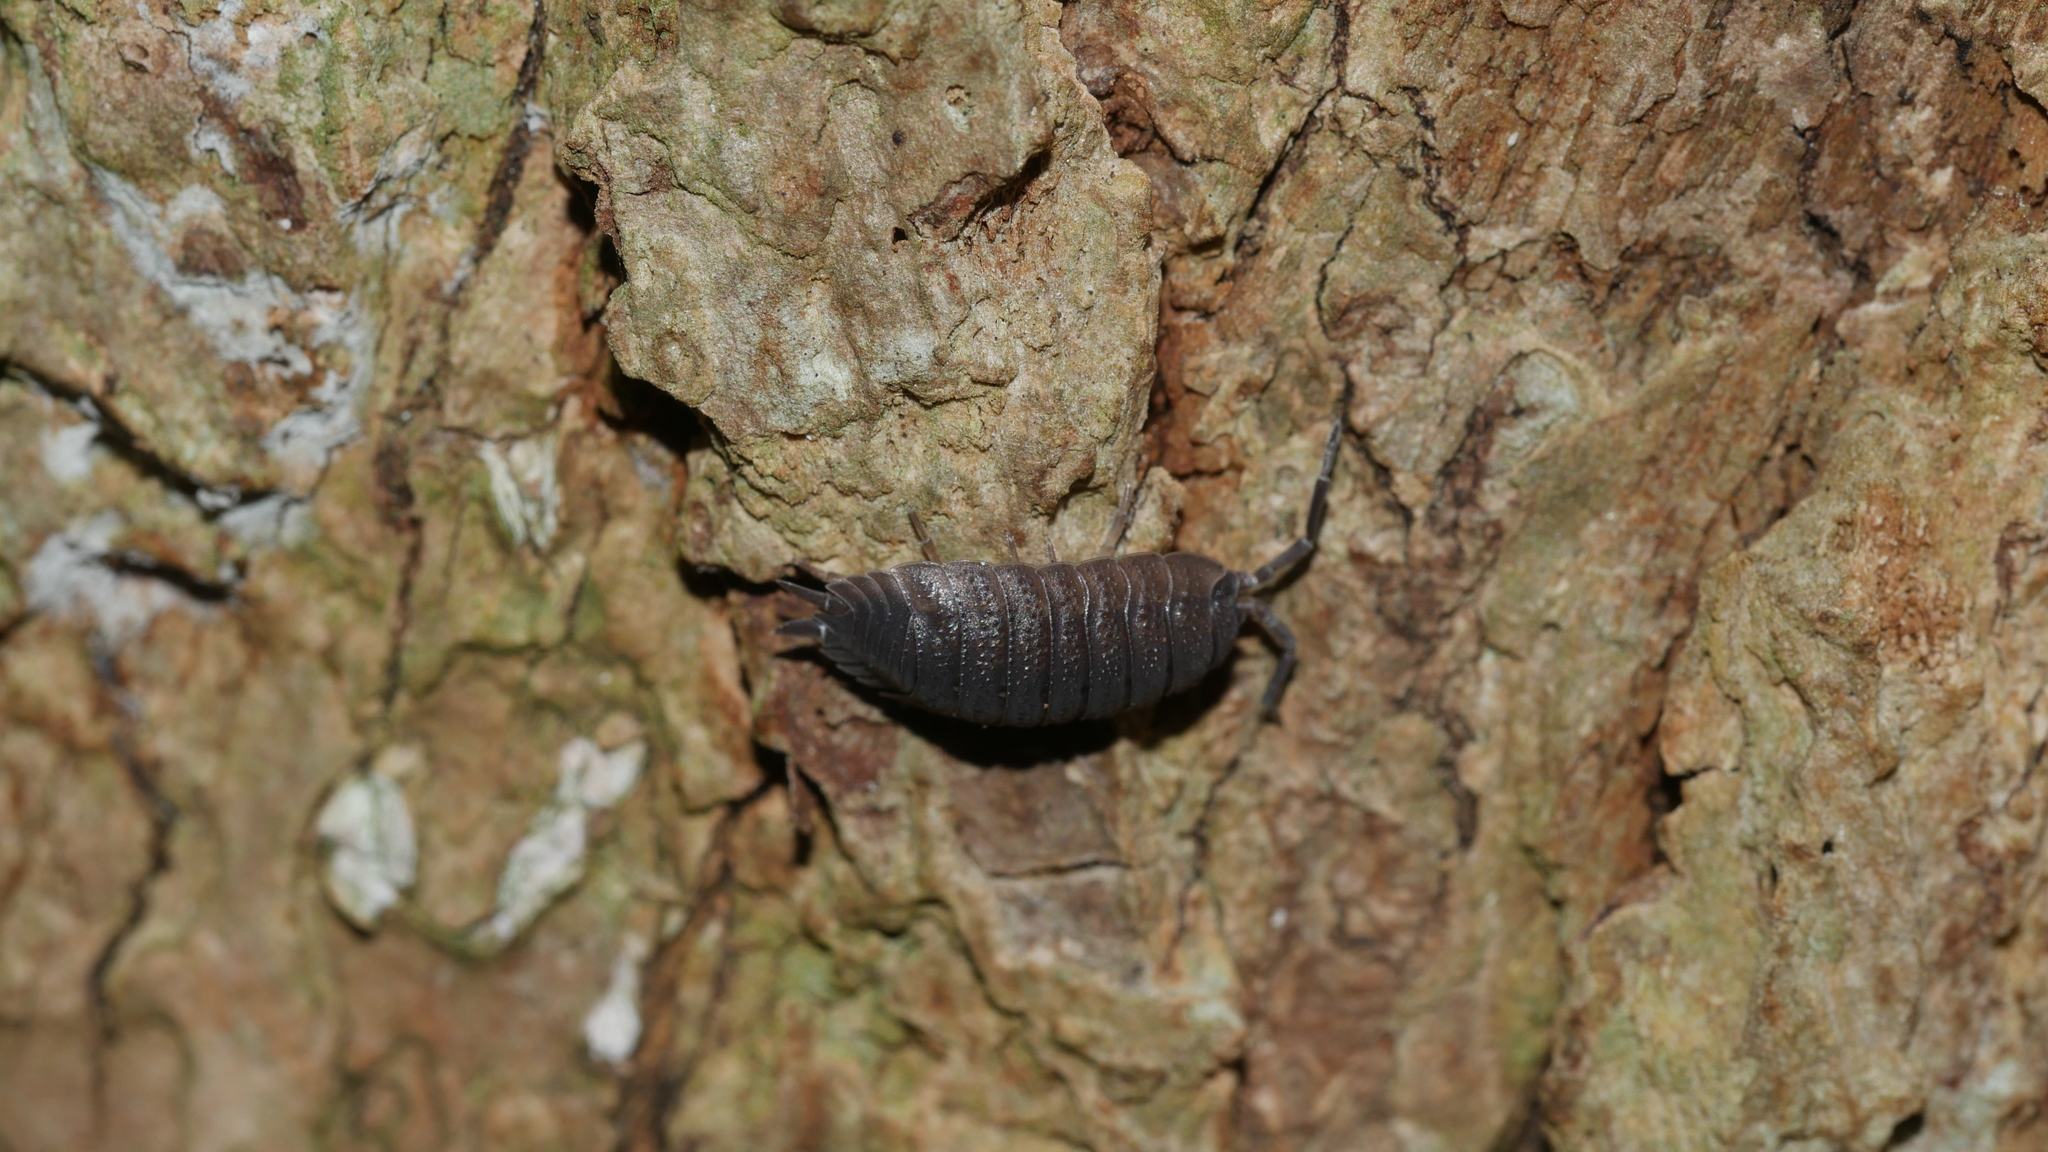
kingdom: Animalia
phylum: Arthropoda
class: Malacostraca
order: Isopoda
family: Porcellionidae
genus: Porcellio
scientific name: Porcellio scaber
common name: Common rough woodlouse
